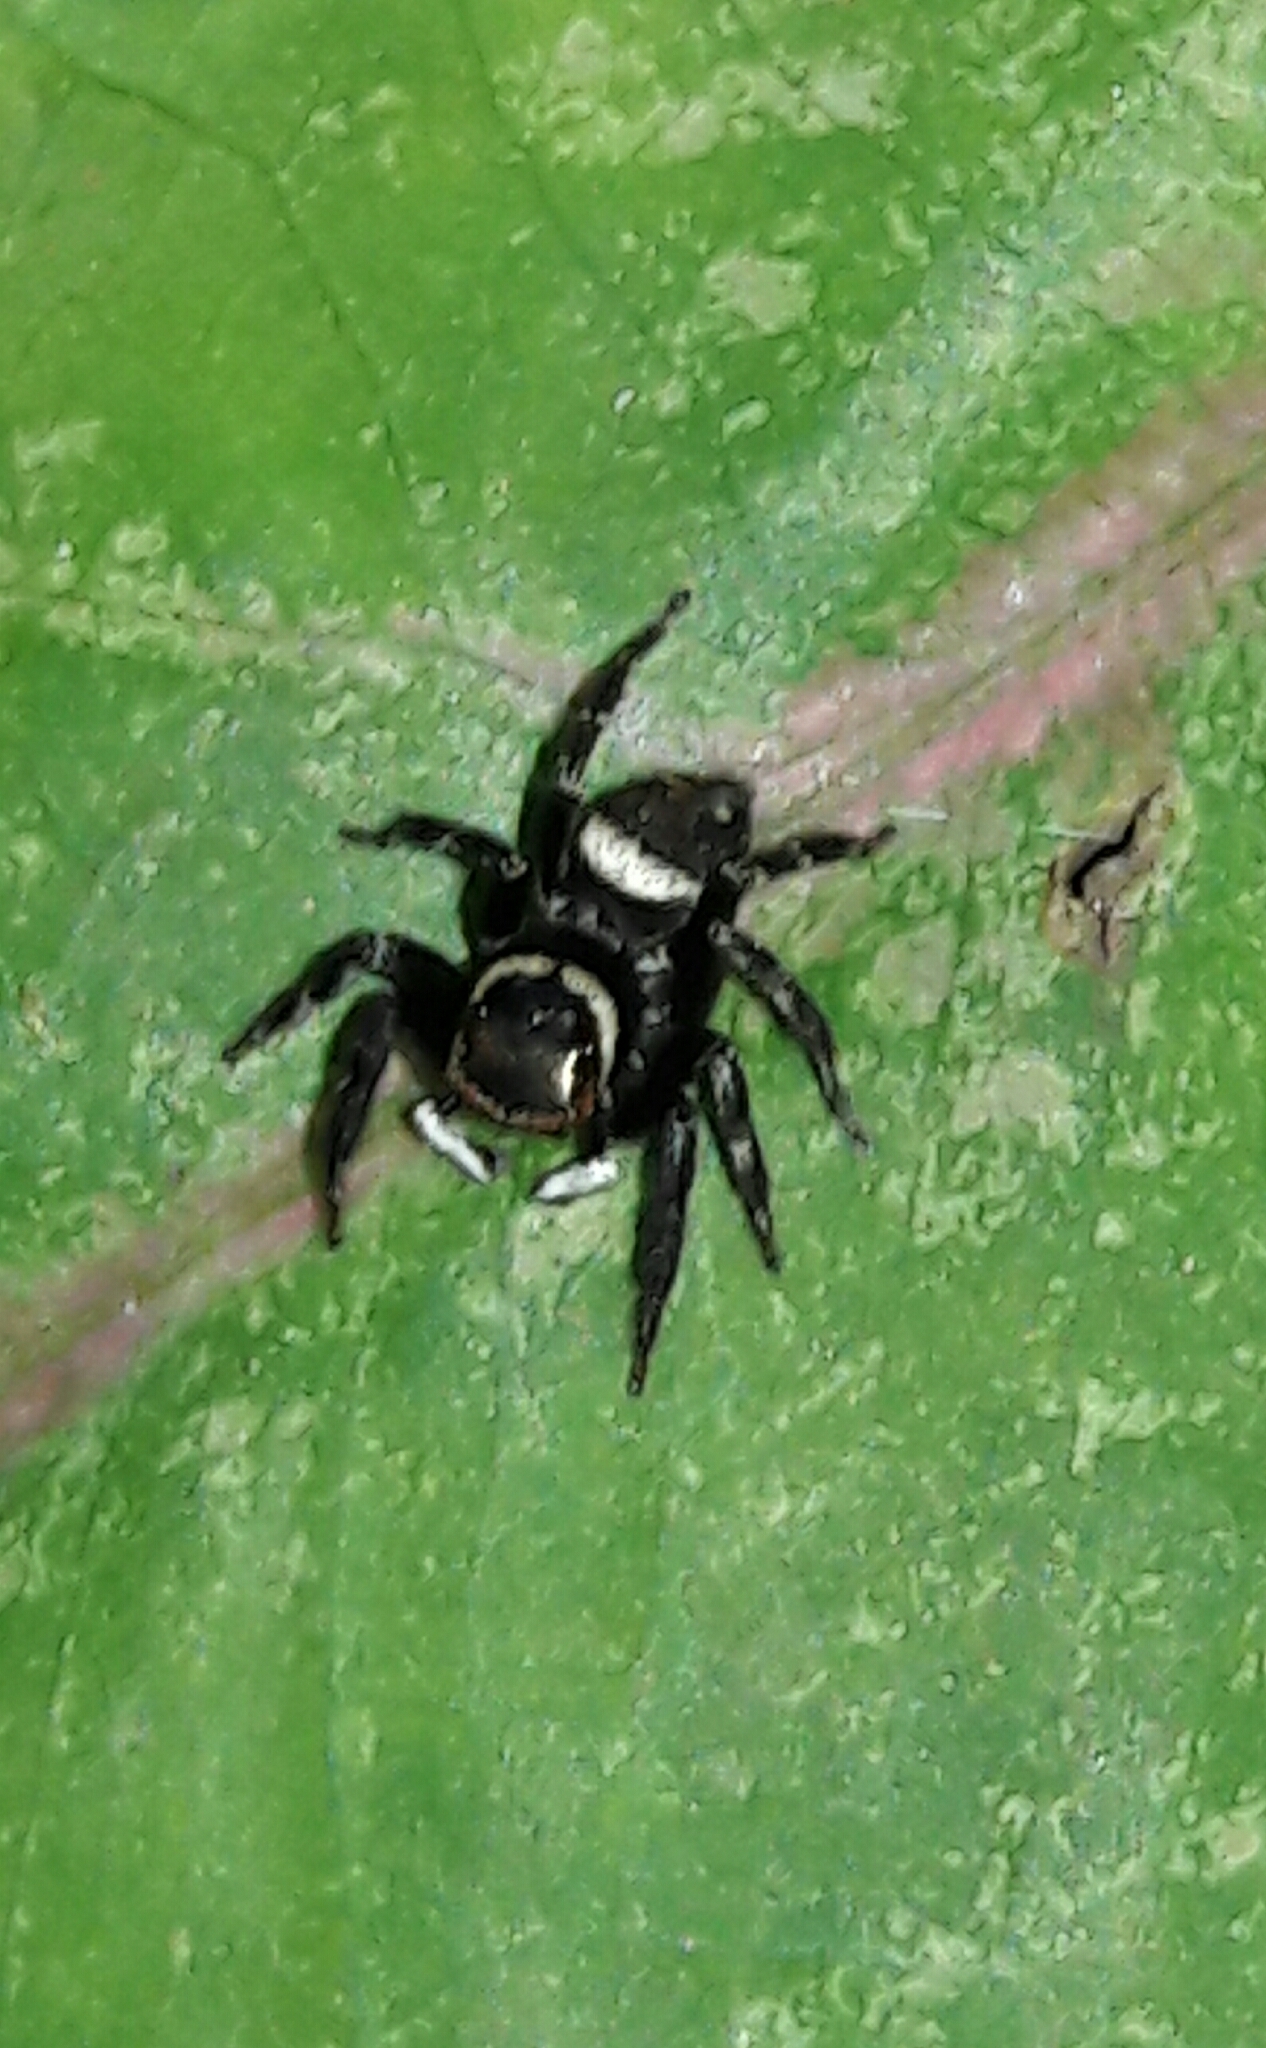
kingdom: Animalia
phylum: Arthropoda
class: Arachnida
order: Araneae
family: Salticidae
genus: Hasarius
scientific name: Hasarius adansoni
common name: Jumping spider
